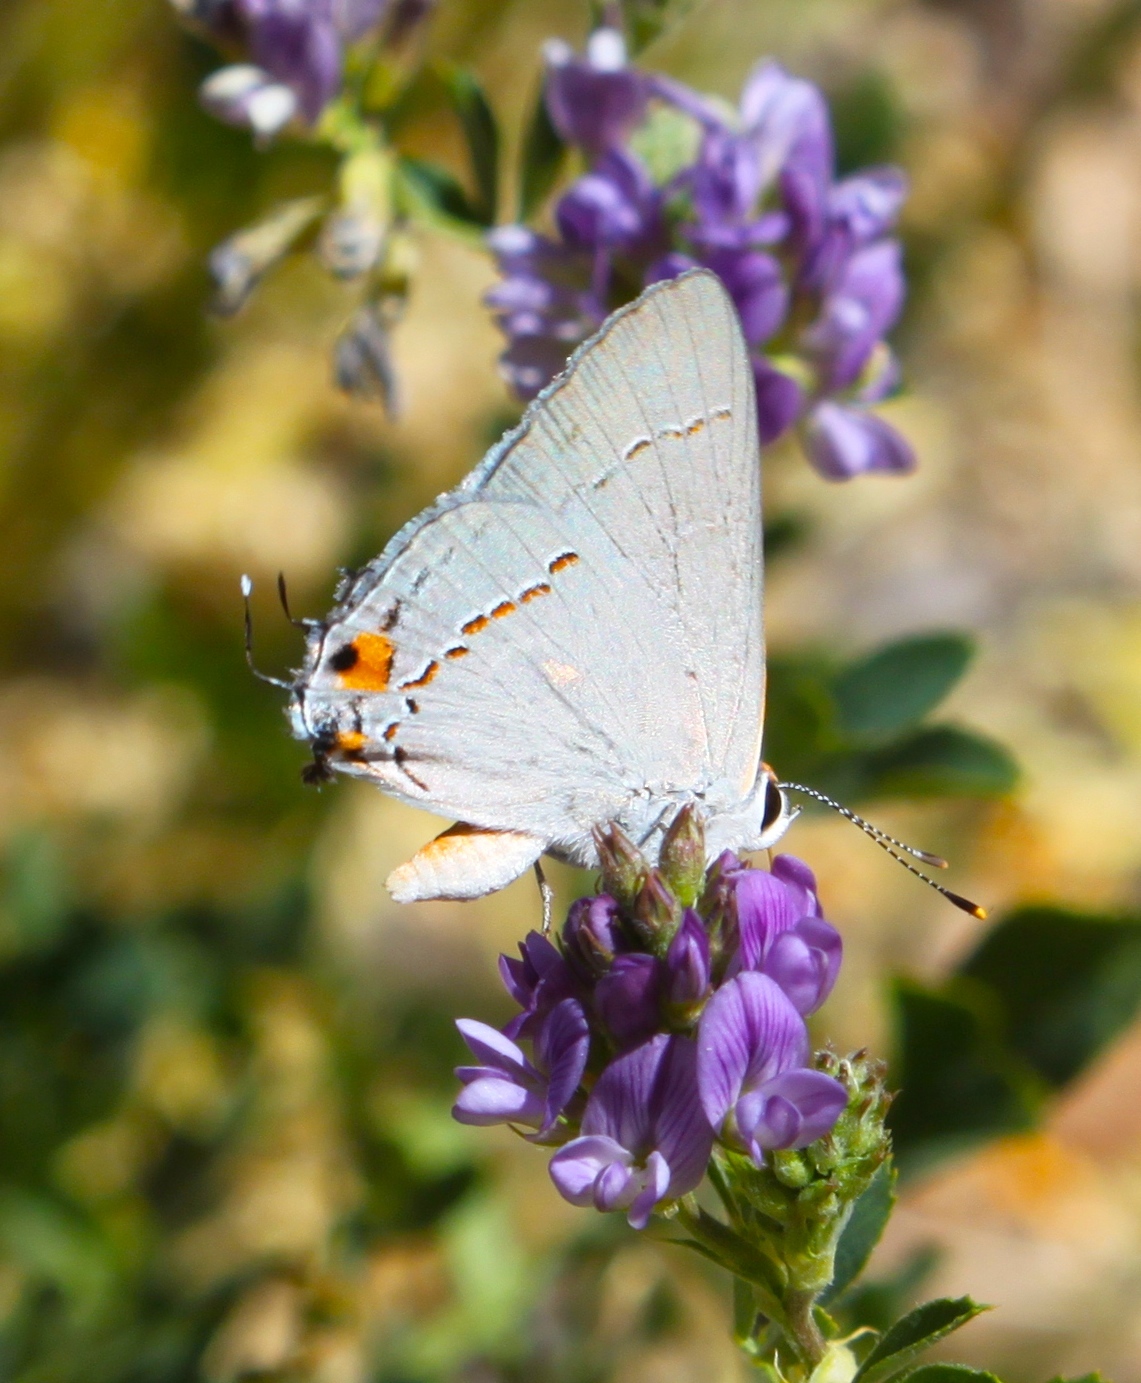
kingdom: Animalia
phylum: Arthropoda
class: Insecta
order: Lepidoptera
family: Lycaenidae
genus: Strymon
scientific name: Strymon melinus
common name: Gray hairstreak
